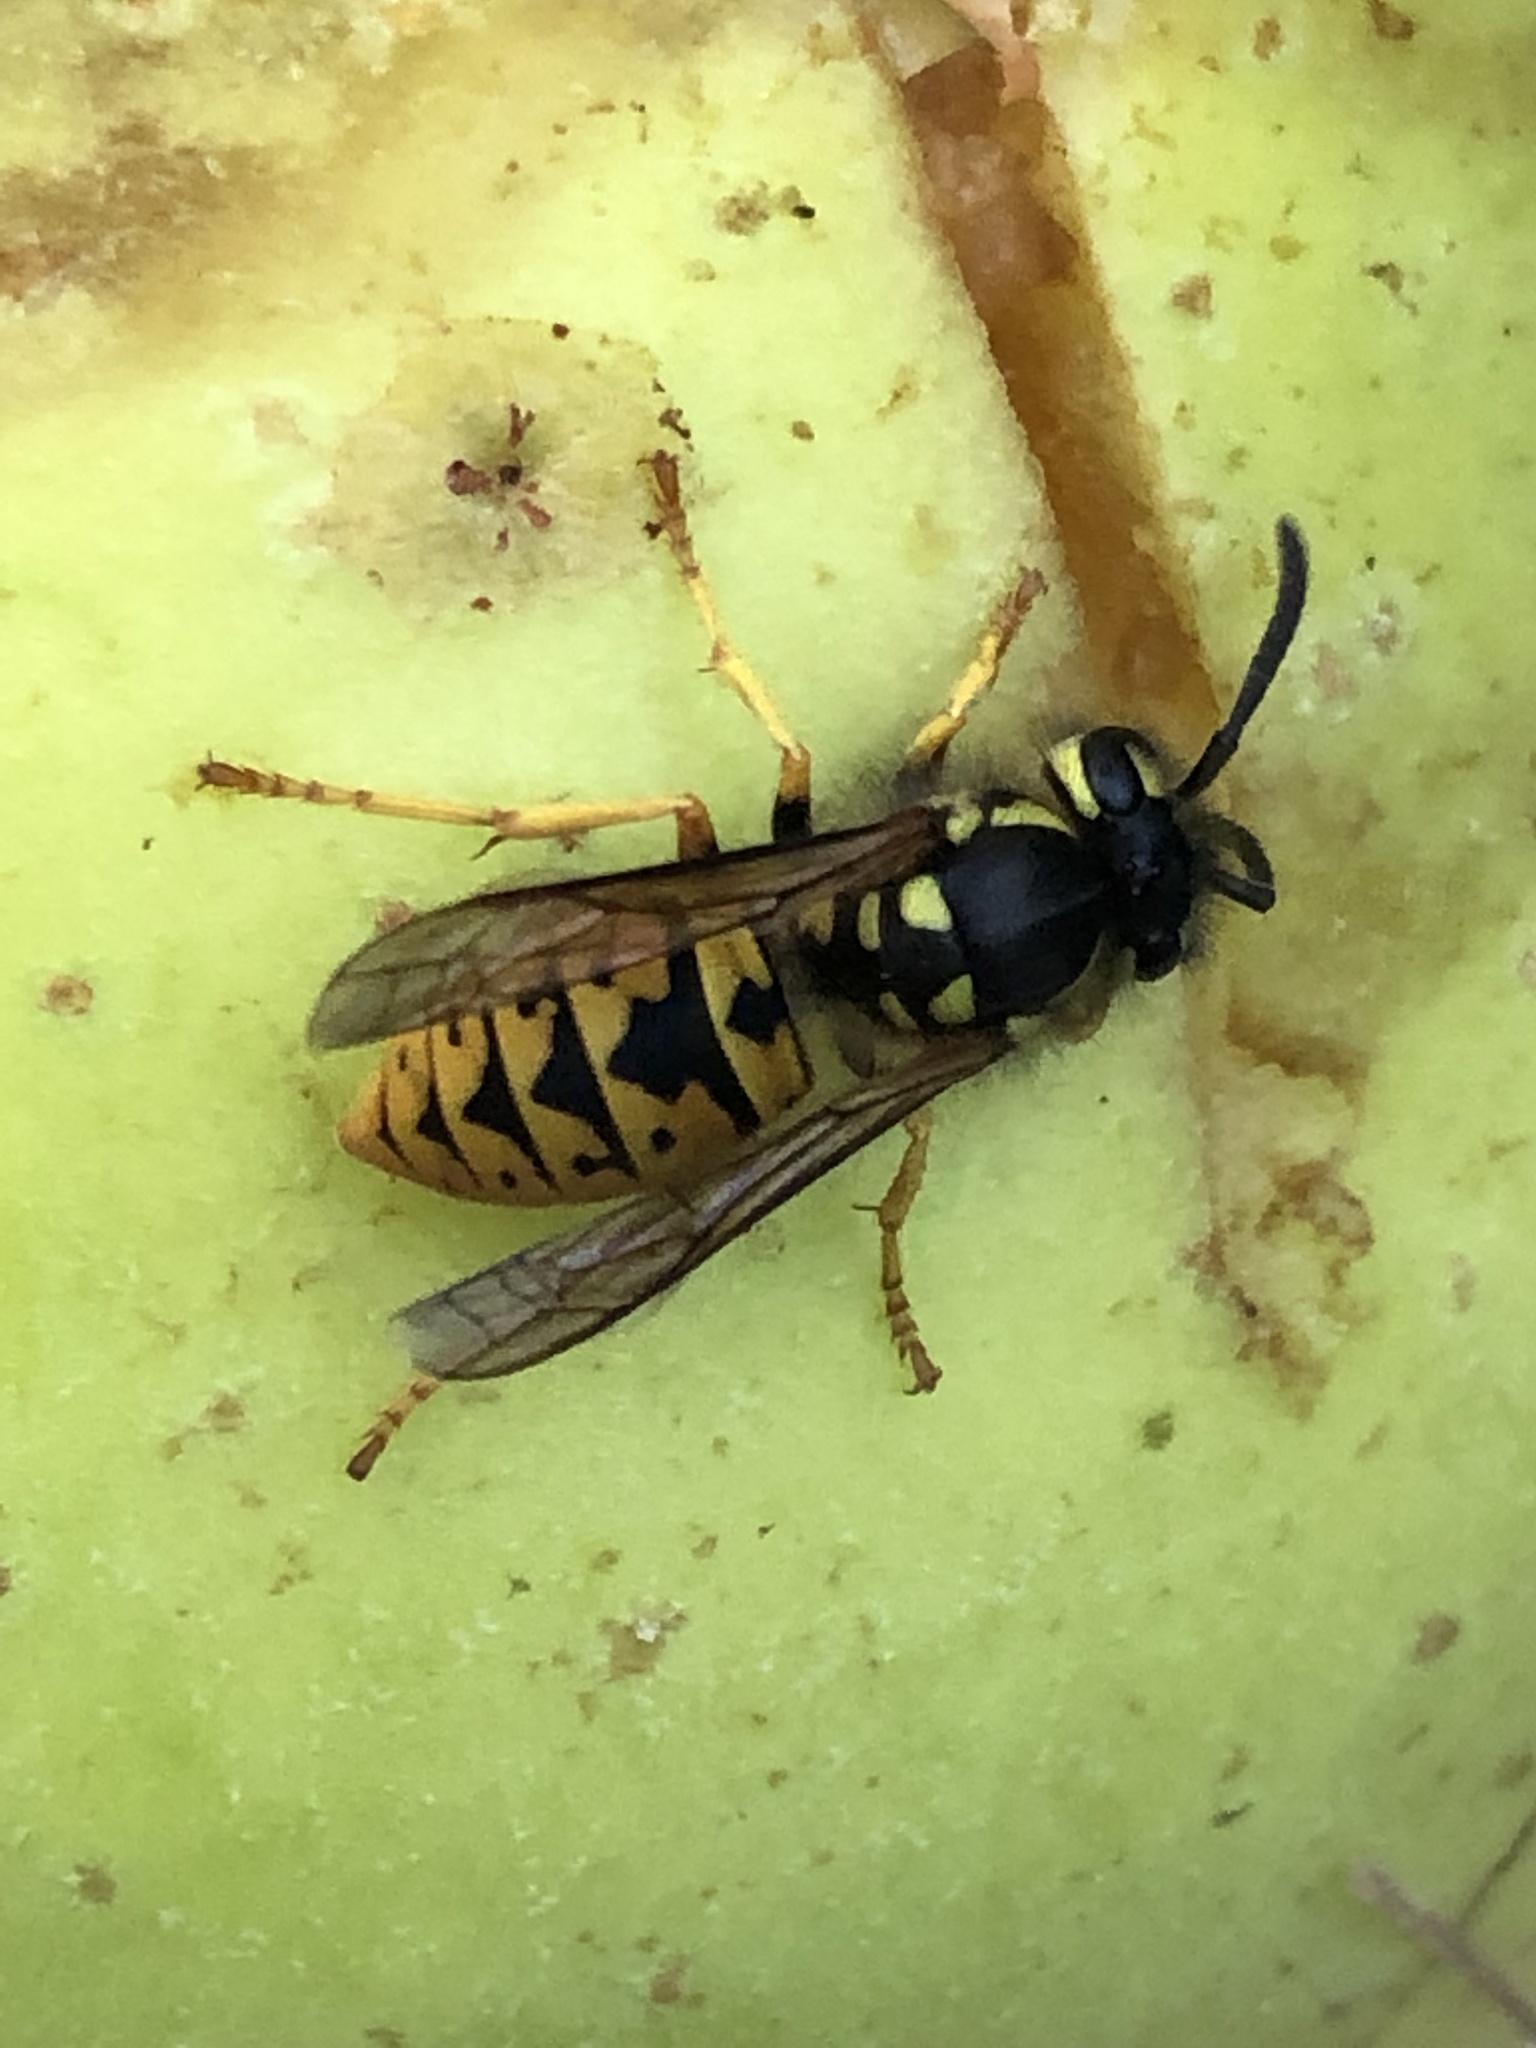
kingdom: Animalia
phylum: Arthropoda
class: Insecta
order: Hymenoptera
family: Vespidae
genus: Vespula
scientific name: Vespula germanica
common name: German wasp
